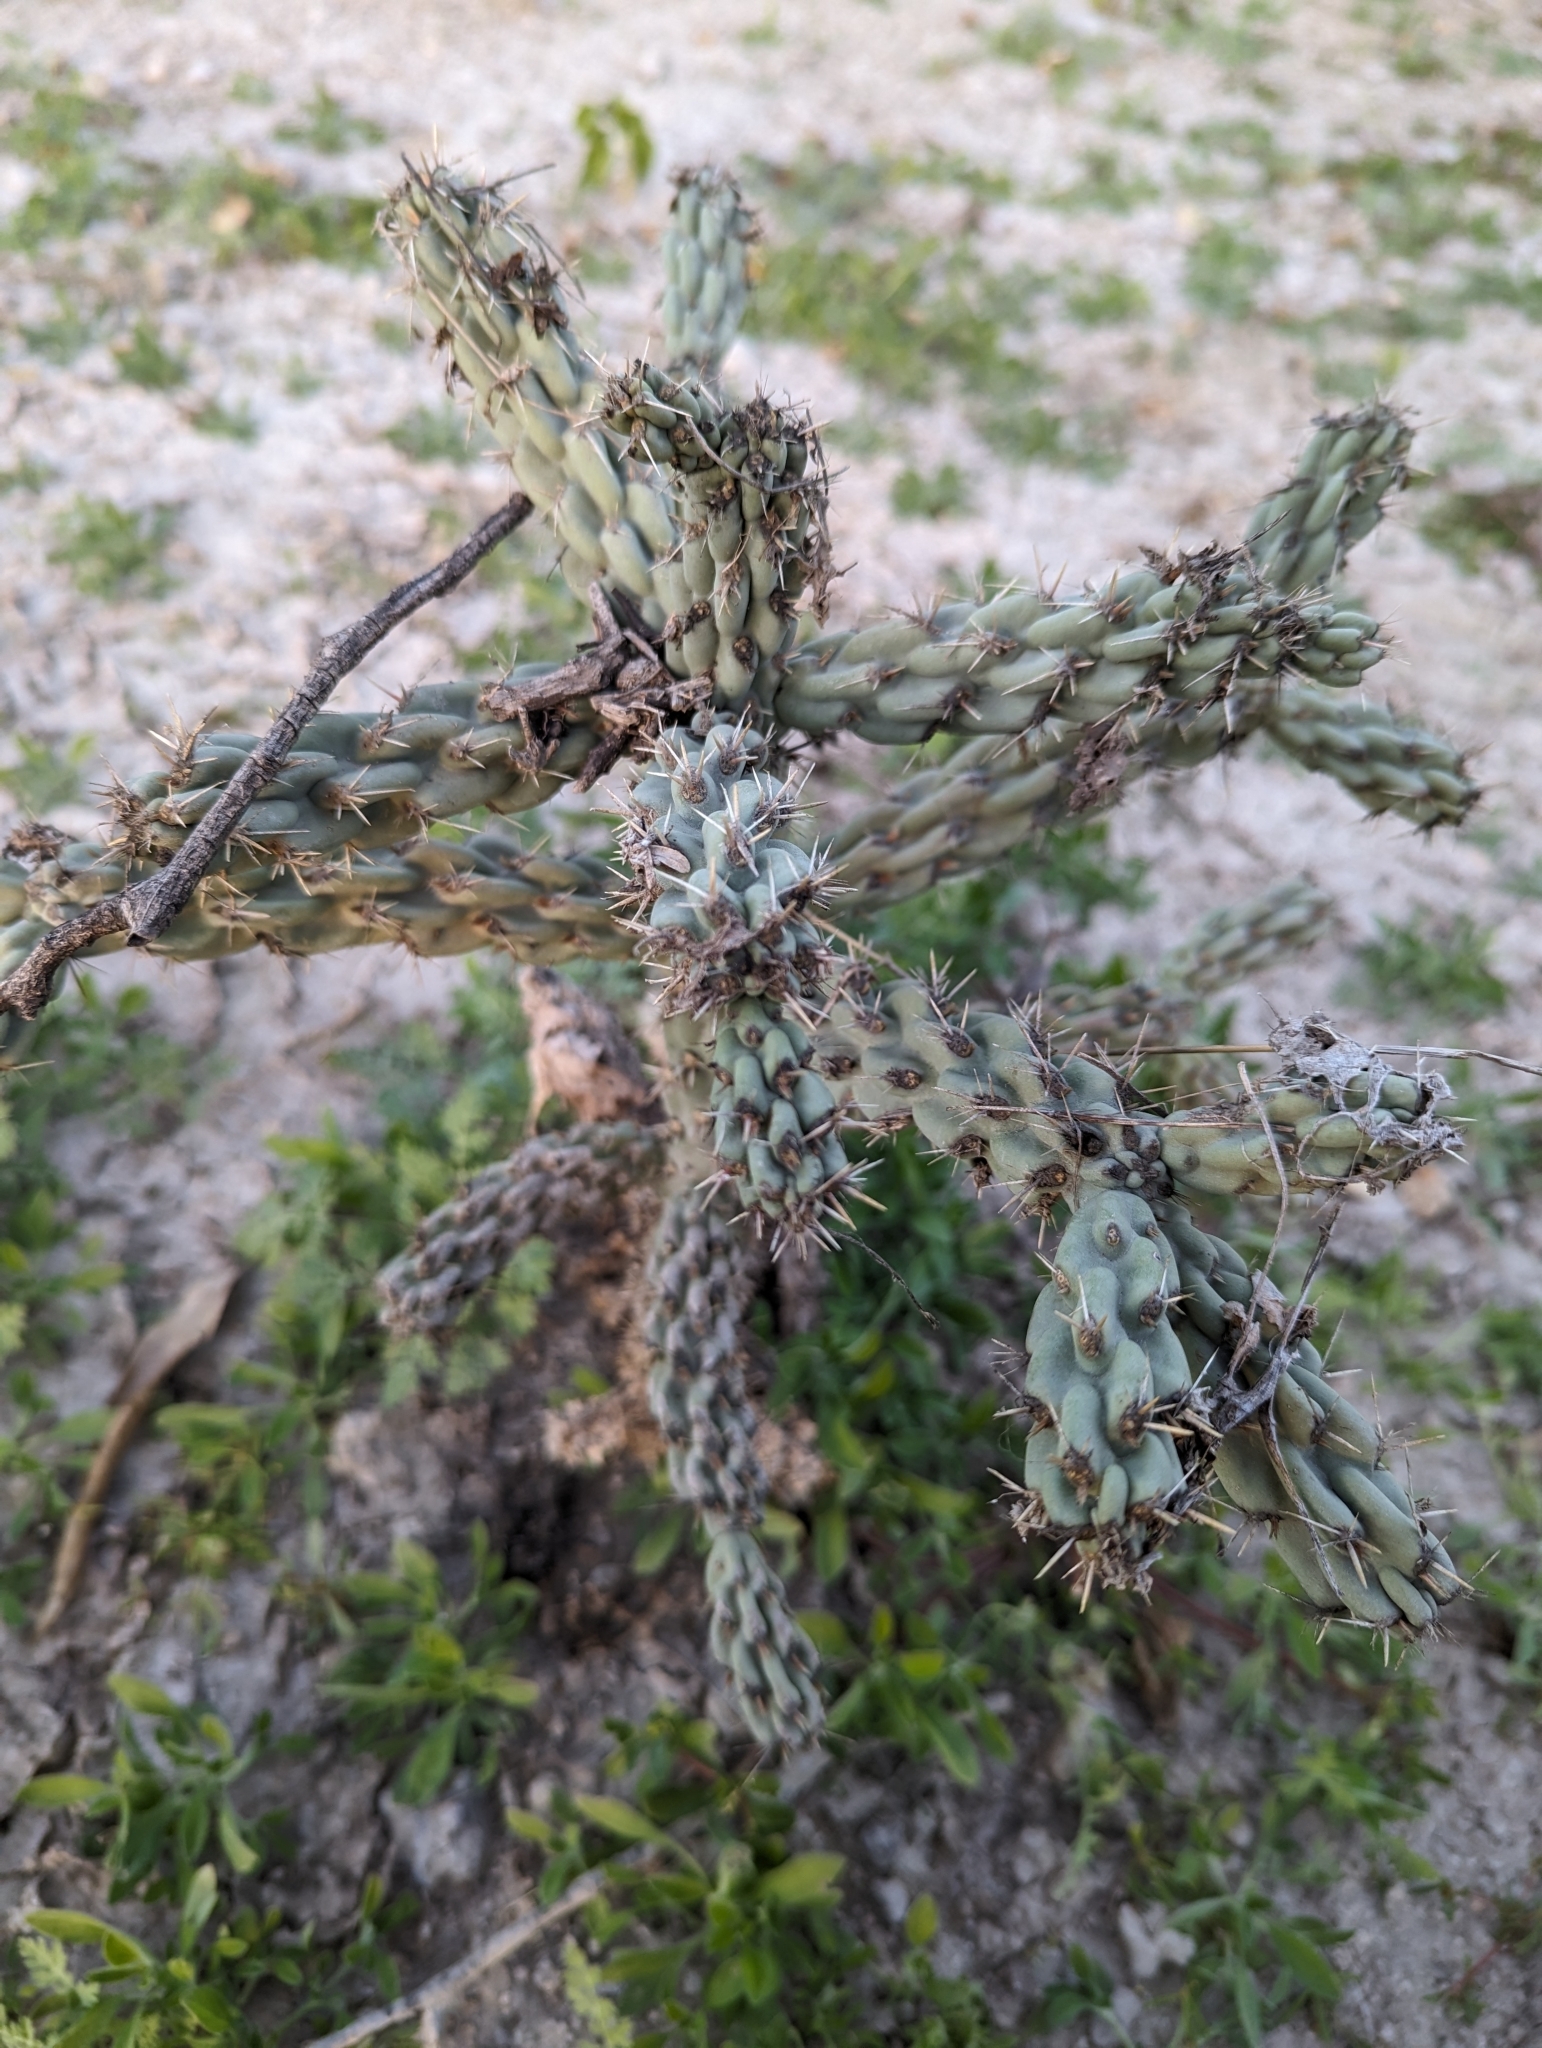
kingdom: Plantae
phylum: Tracheophyta
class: Magnoliopsida
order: Caryophyllales
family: Cactaceae
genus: Cylindropuntia
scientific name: Cylindropuntia cholla
